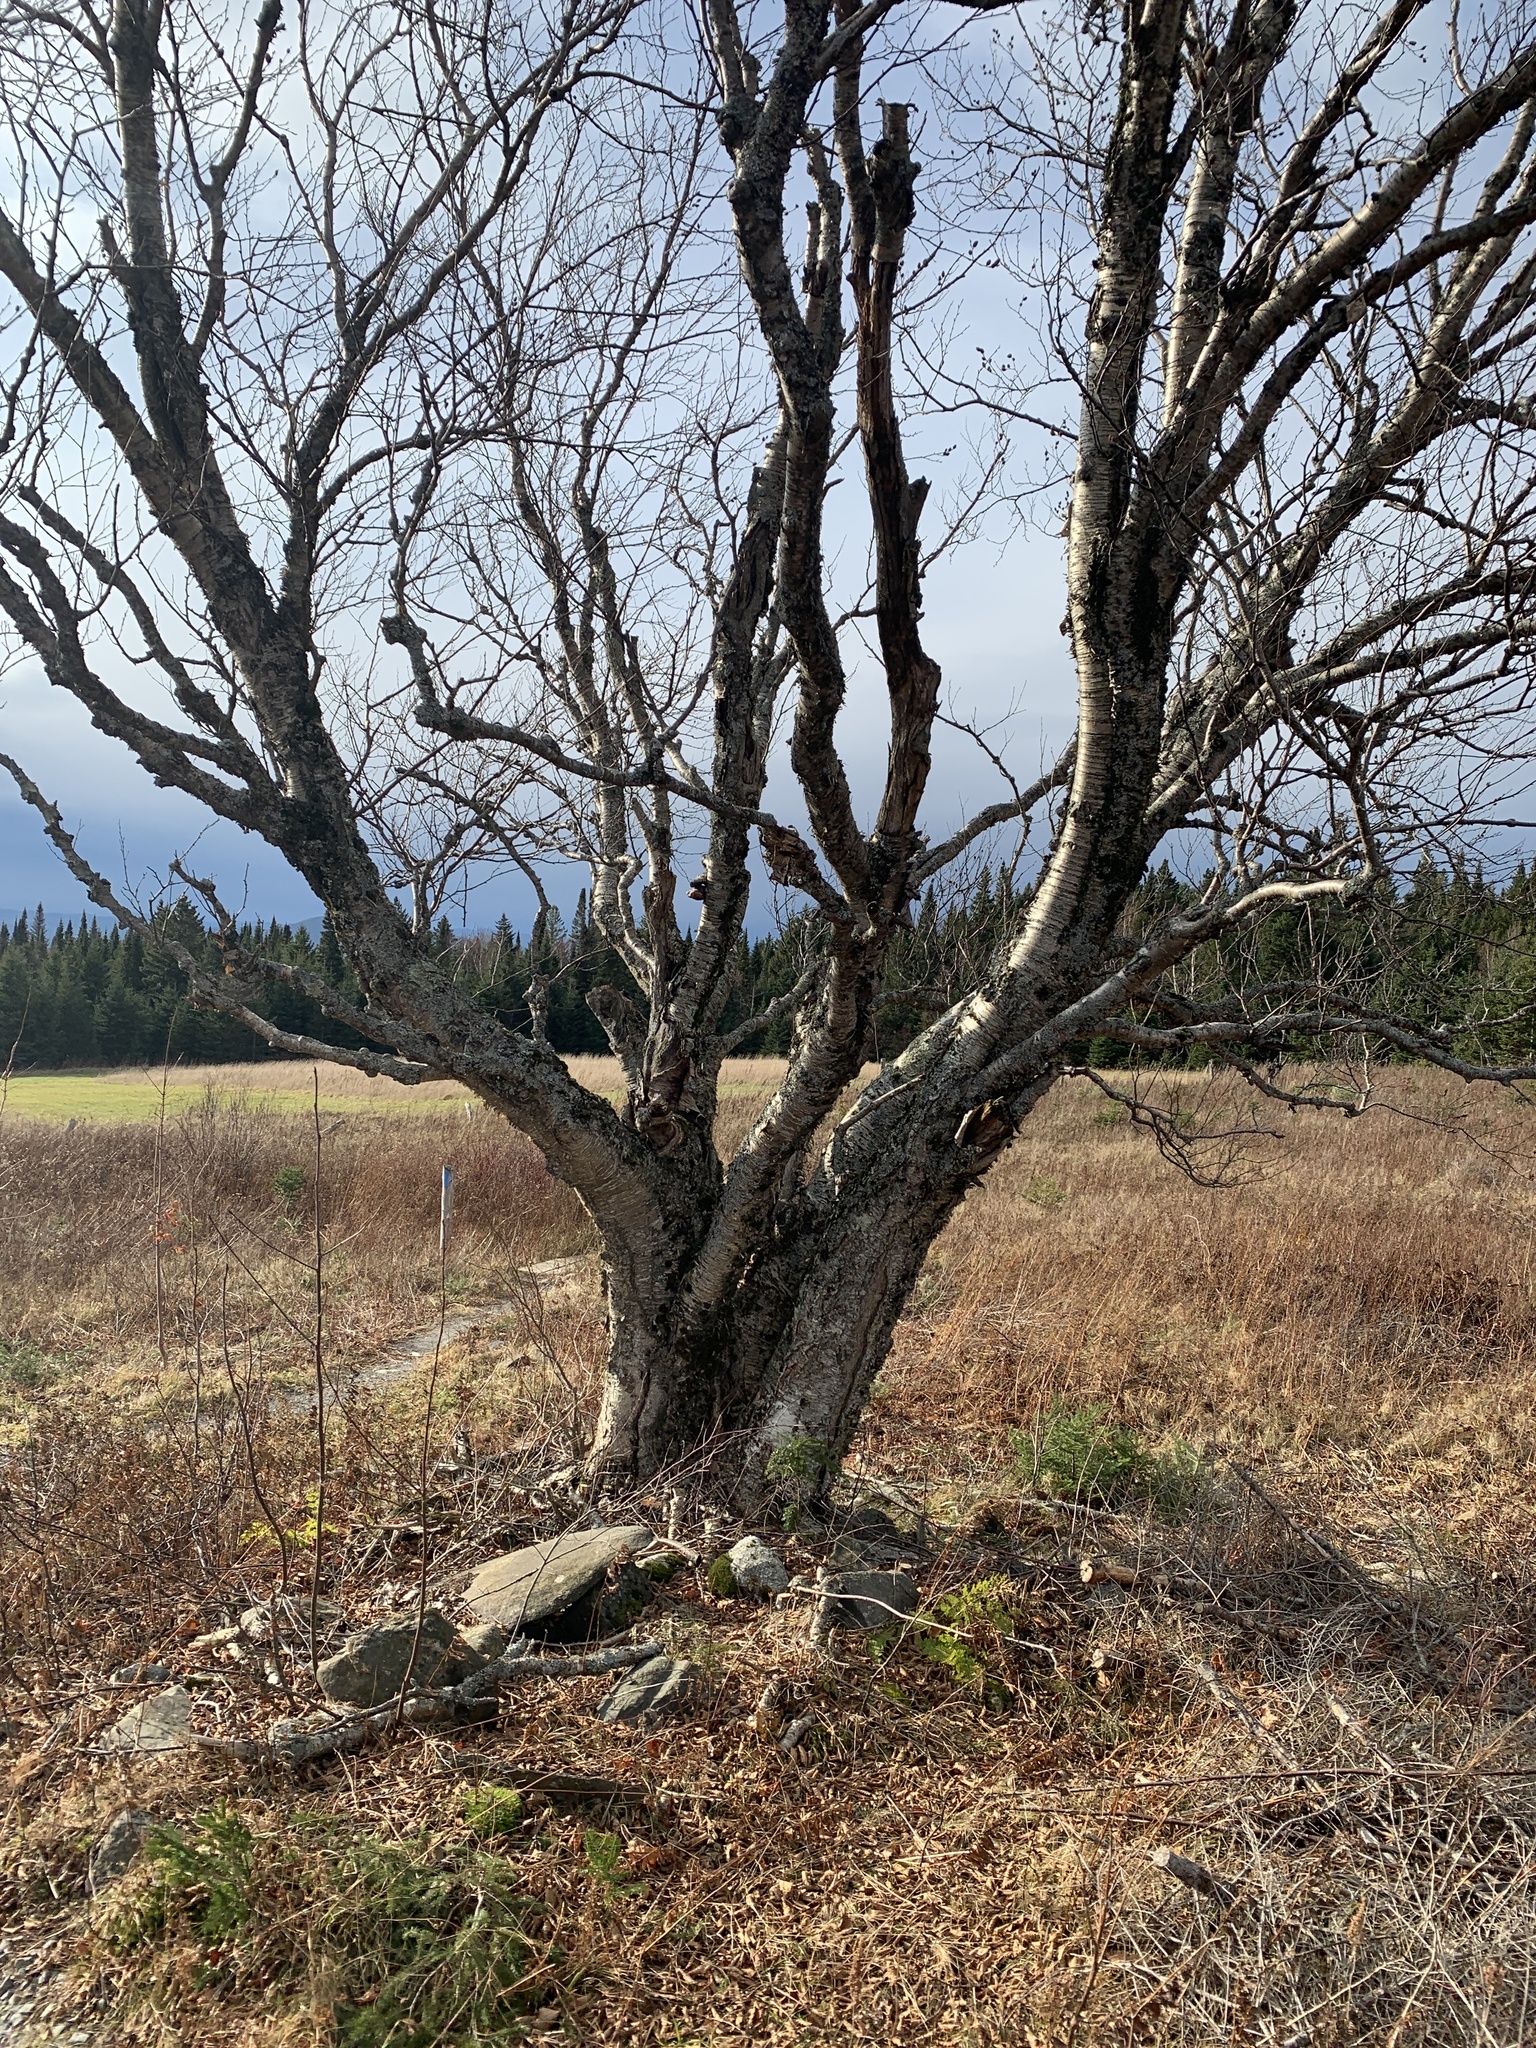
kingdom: Plantae
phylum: Tracheophyta
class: Magnoliopsida
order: Fagales
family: Betulaceae
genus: Betula
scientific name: Betula alleghaniensis
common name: Yellow birch
